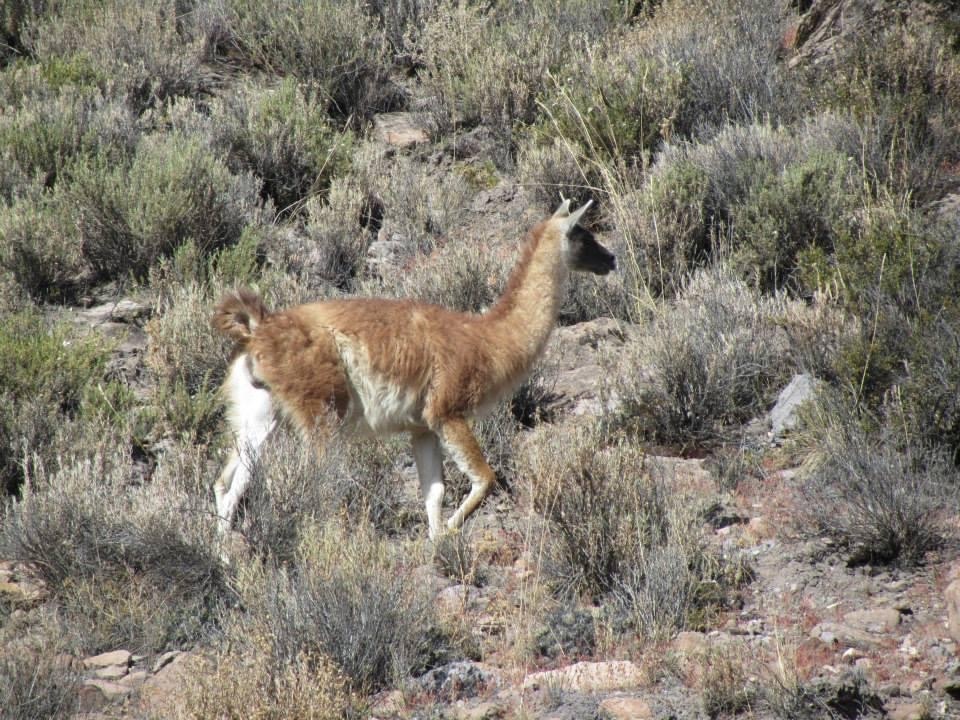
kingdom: Animalia
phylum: Chordata
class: Mammalia
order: Artiodactyla
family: Camelidae
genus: Lama
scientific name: Lama glama
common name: Llama
